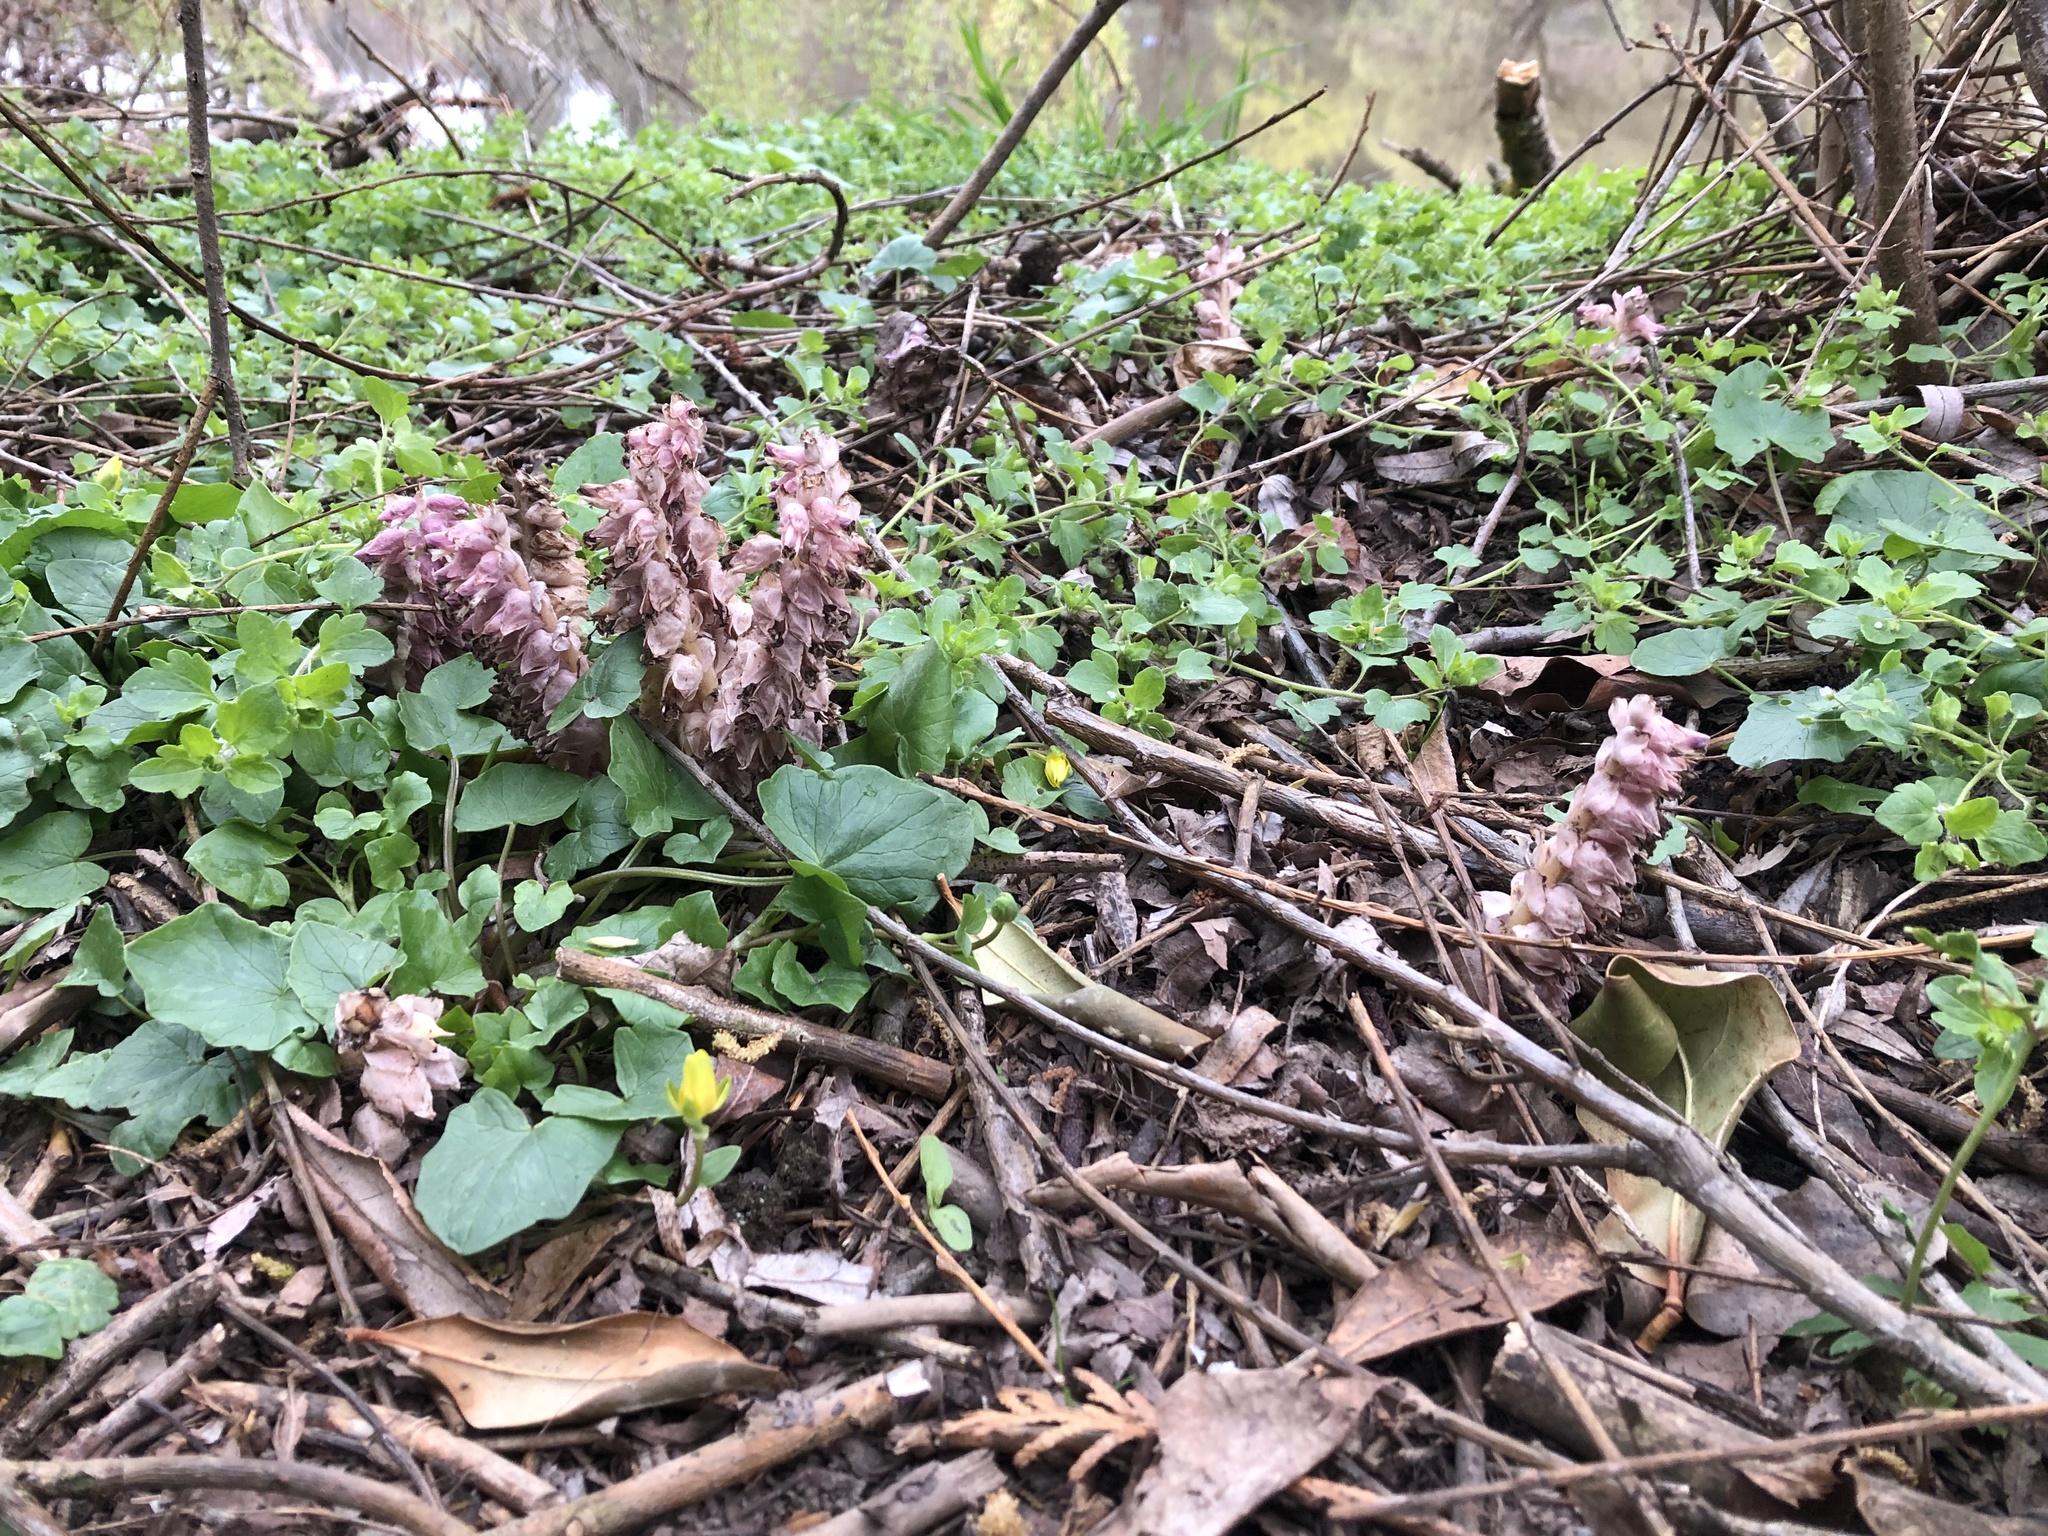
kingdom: Plantae
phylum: Tracheophyta
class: Magnoliopsida
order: Lamiales
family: Orobanchaceae
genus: Lathraea
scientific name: Lathraea squamaria
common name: Toothwort
